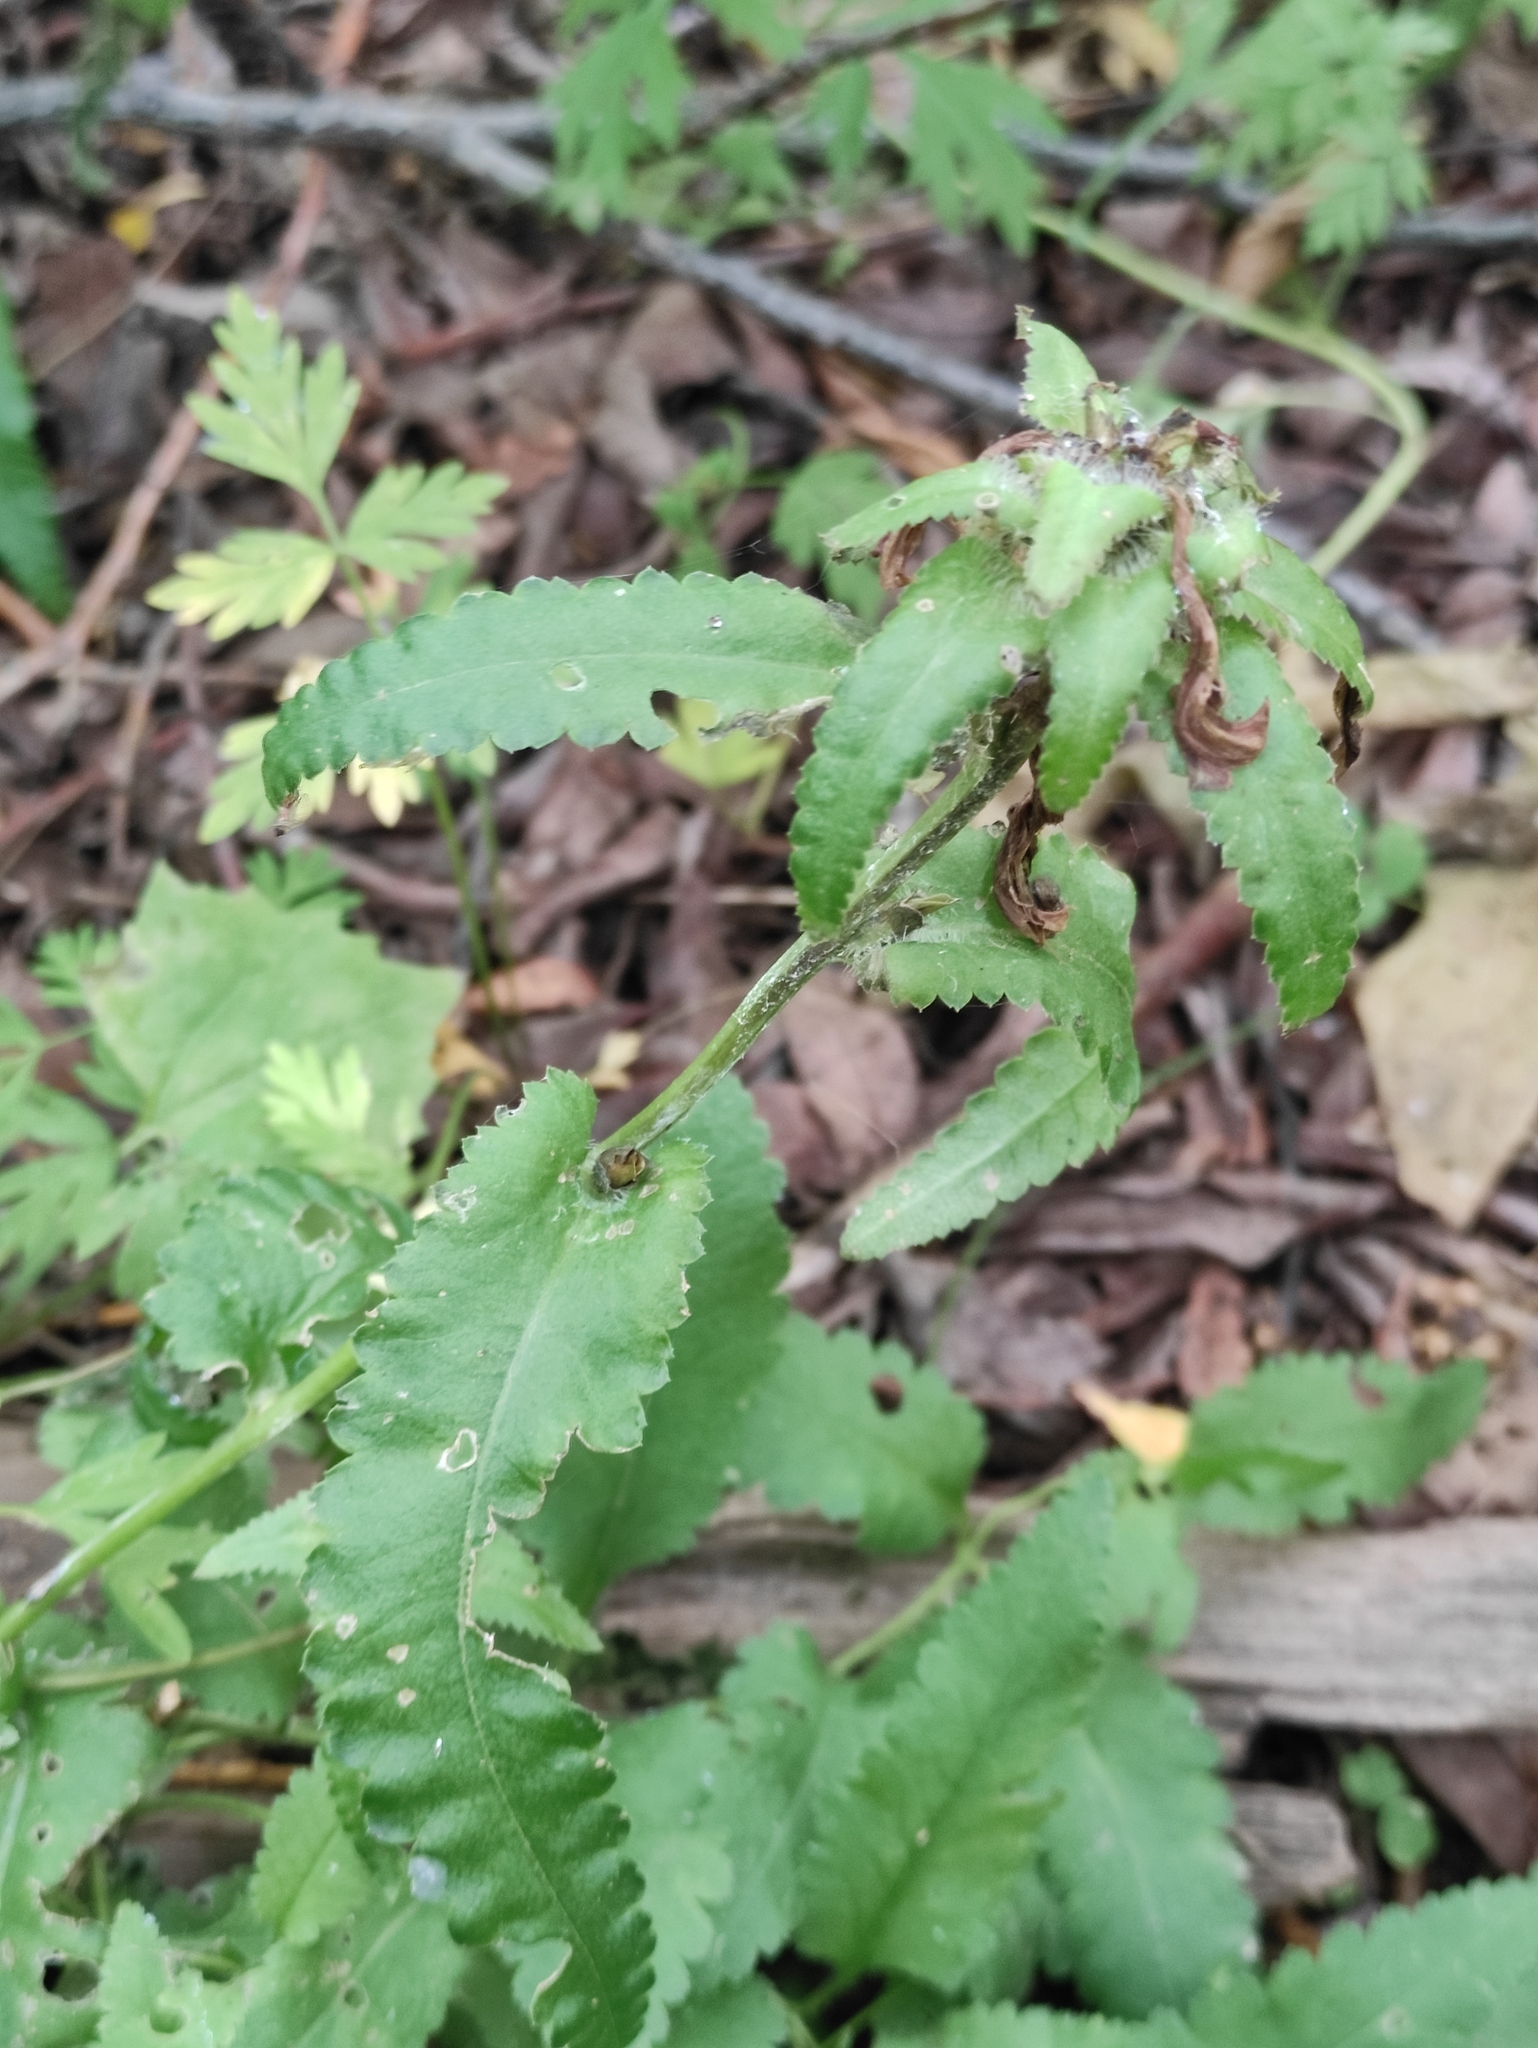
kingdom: Plantae
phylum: Tracheophyta
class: Magnoliopsida
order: Lamiales
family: Orobanchaceae
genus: Pedicularis
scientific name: Pedicularis resupinata
